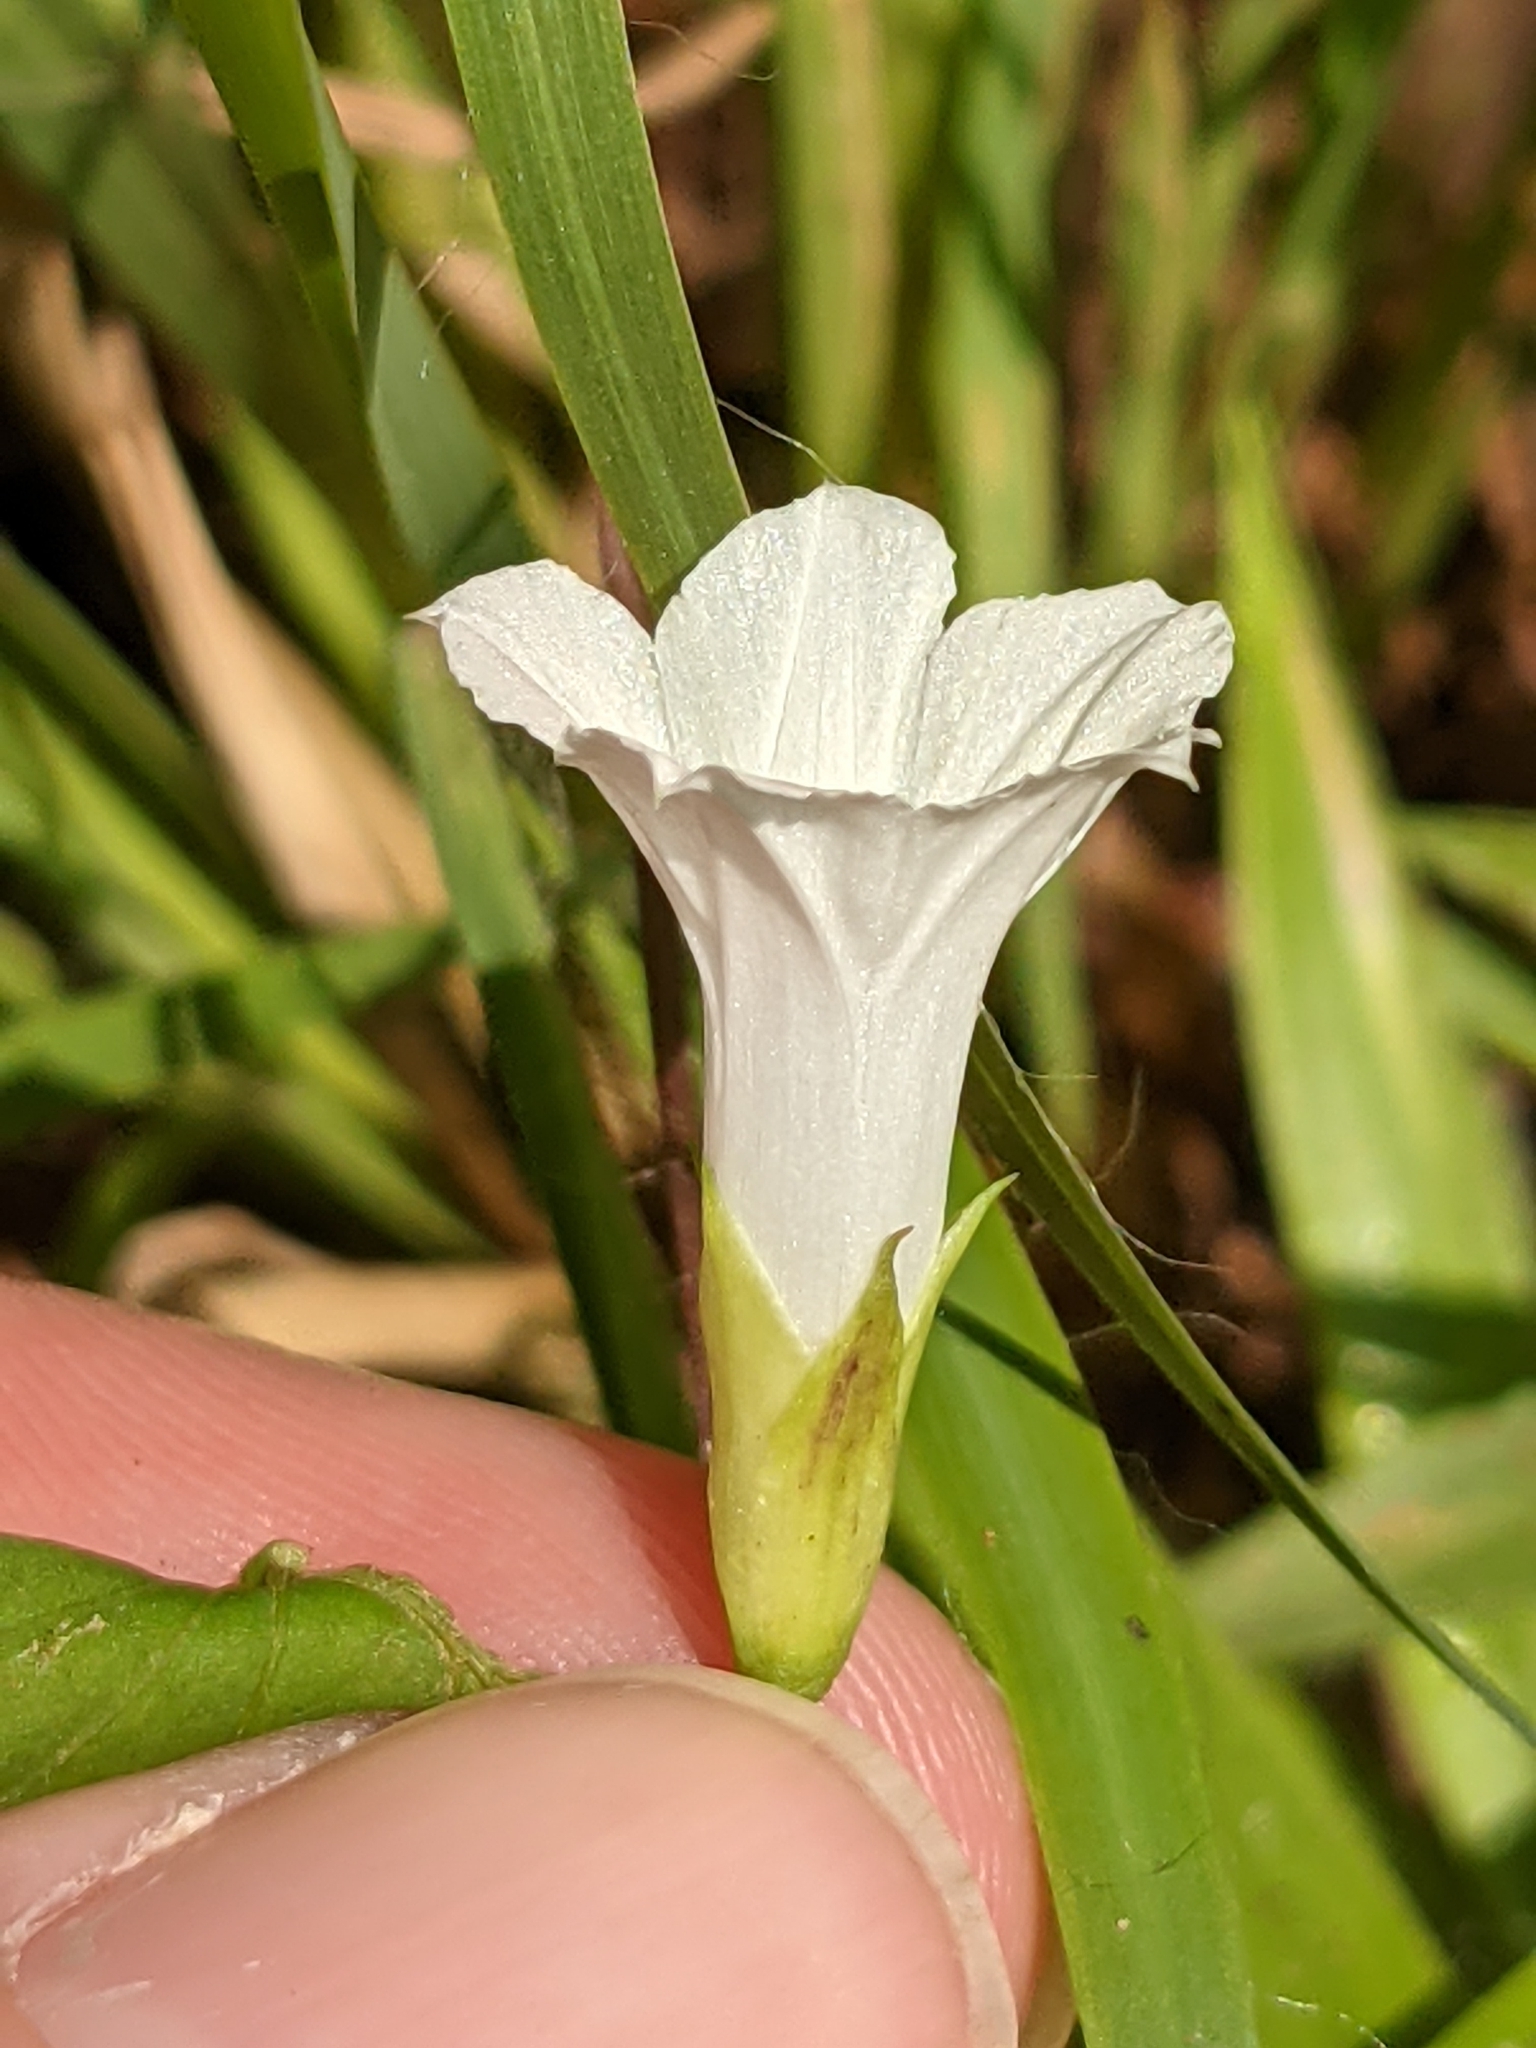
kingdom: Plantae
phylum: Tracheophyta
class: Magnoliopsida
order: Solanales
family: Convolvulaceae
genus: Ipomoea
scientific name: Ipomoea lacunosa
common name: White morning-glory
